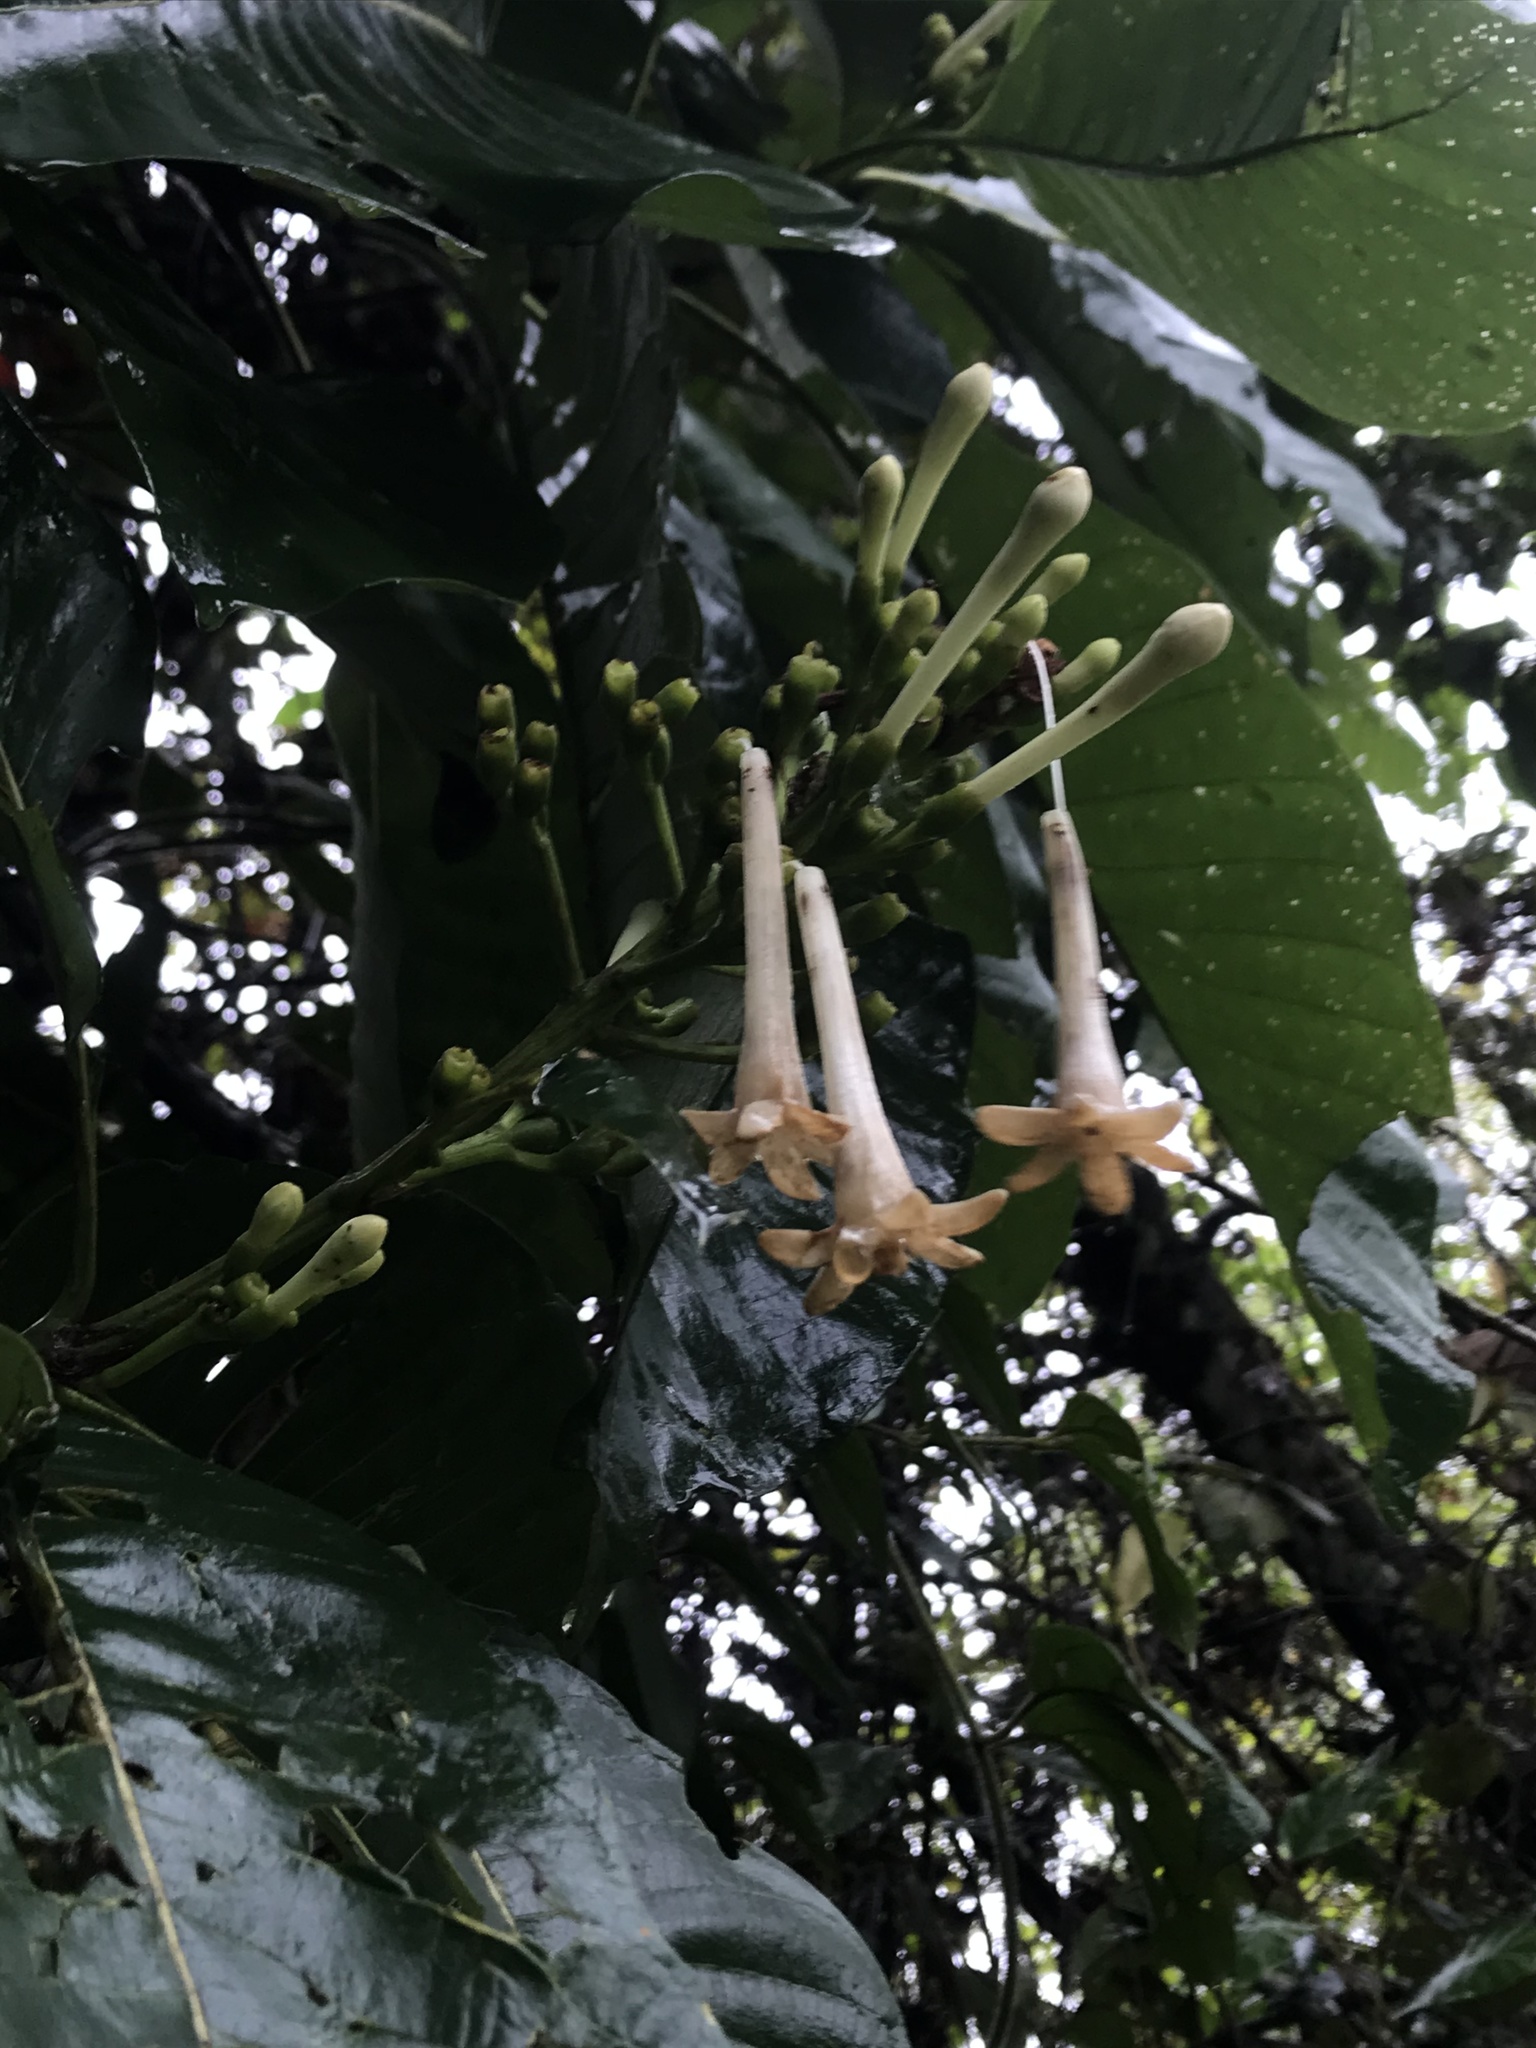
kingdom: Plantae
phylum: Tracheophyta
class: Magnoliopsida
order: Gentianales
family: Rubiaceae
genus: Isertia
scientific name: Isertia laevis
